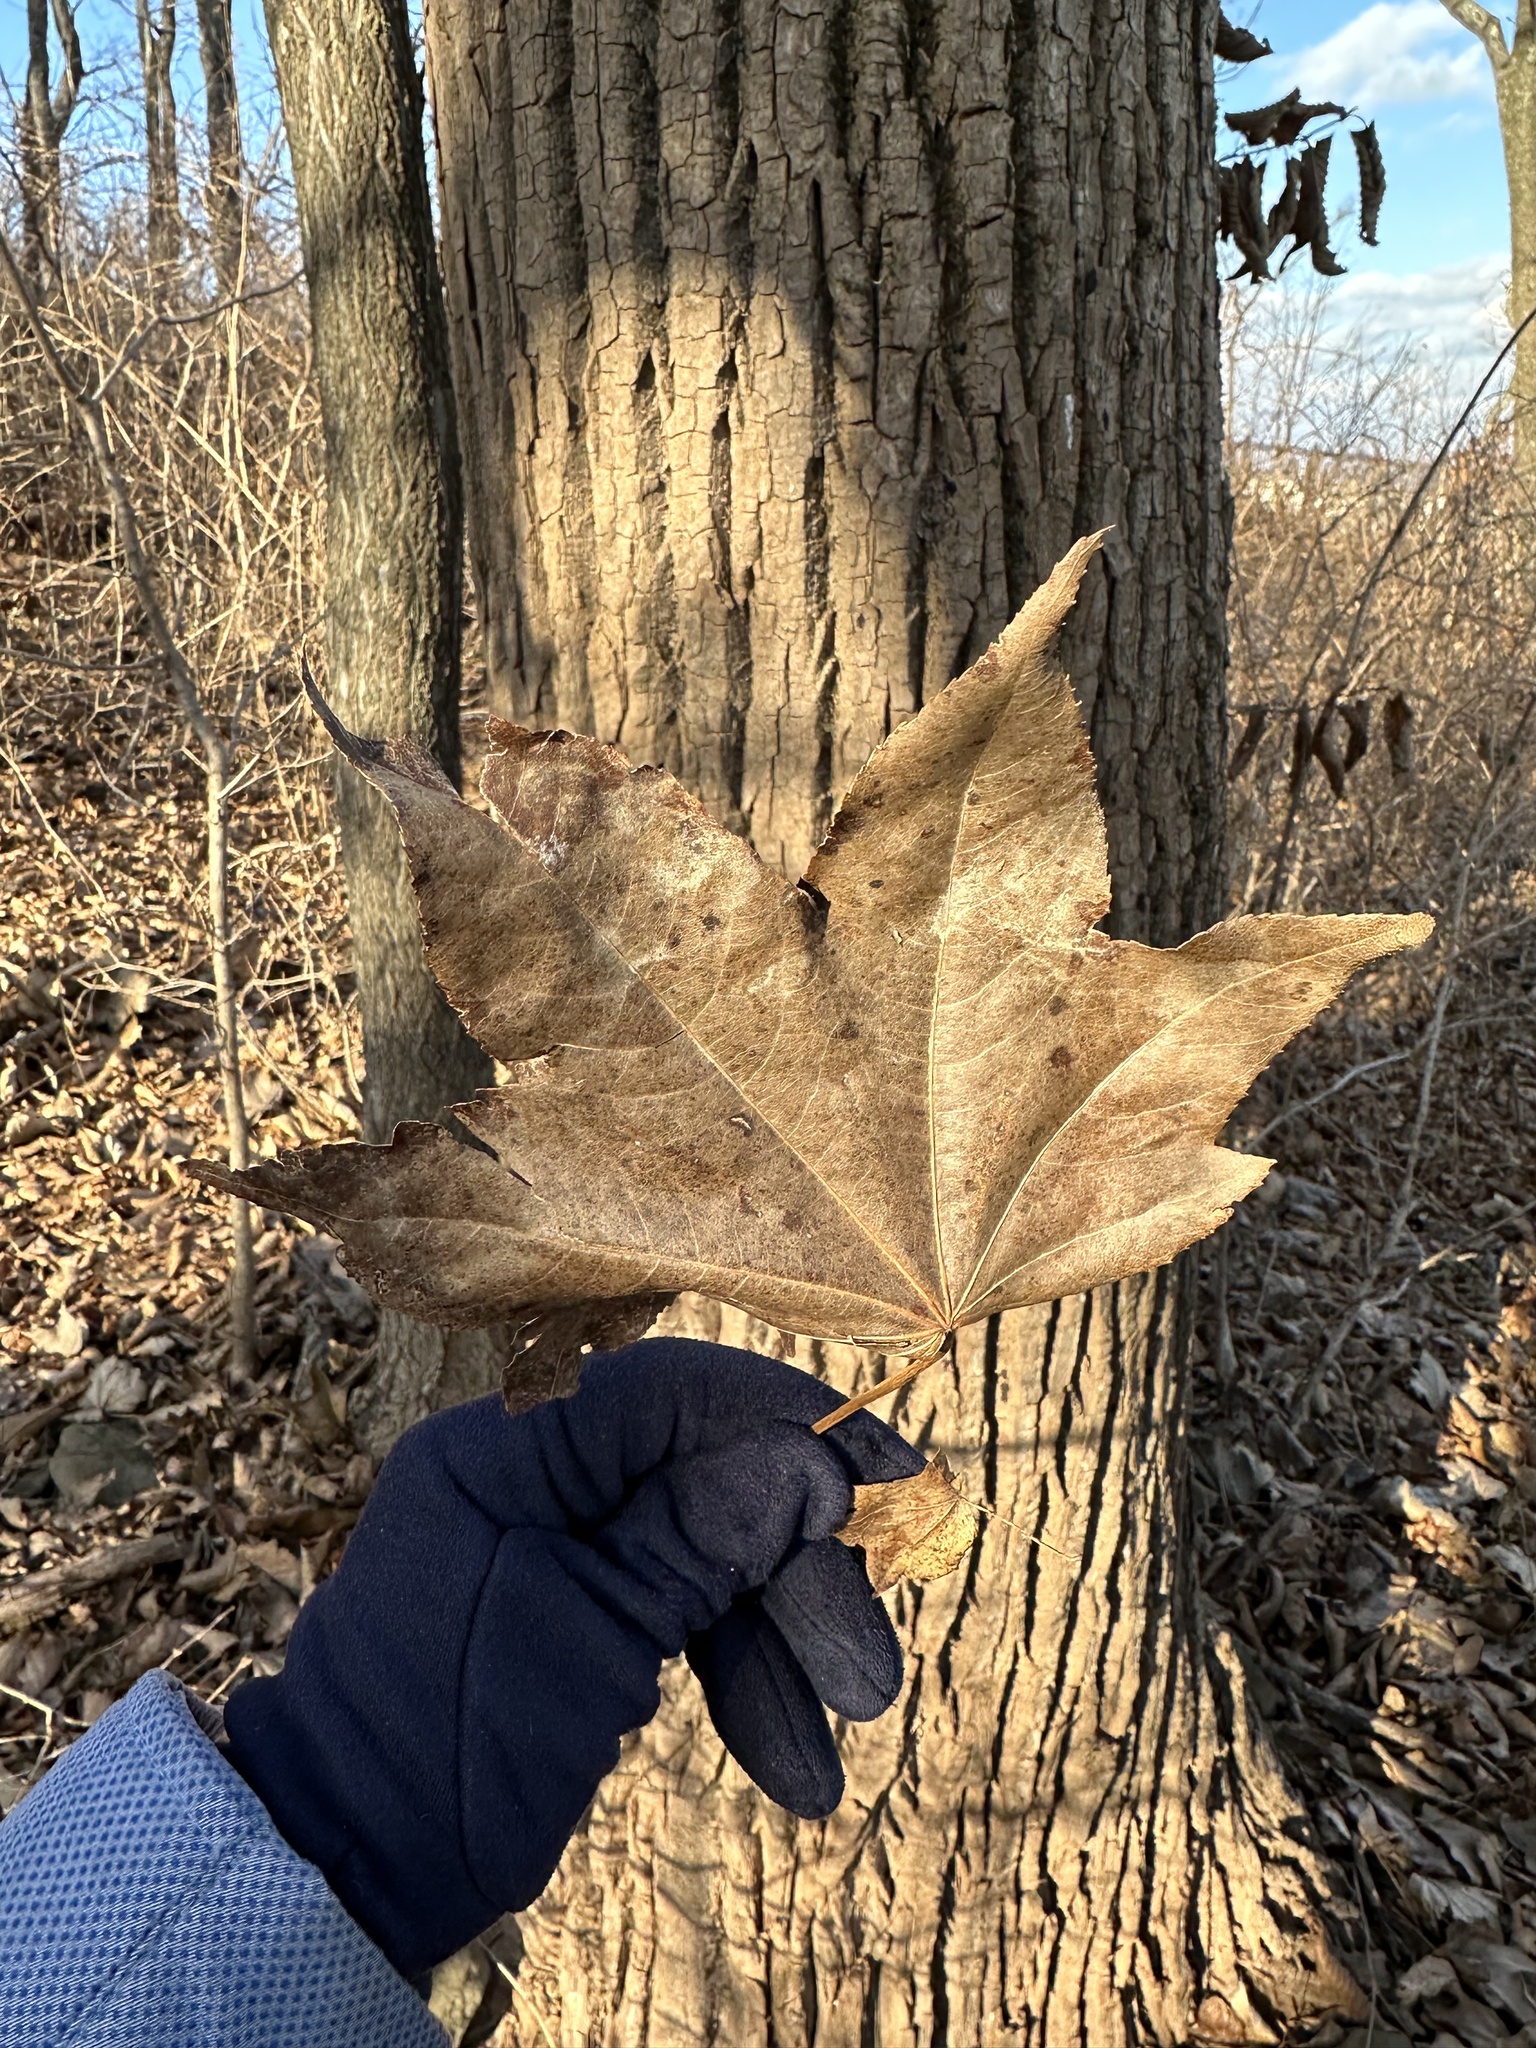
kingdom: Plantae
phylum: Tracheophyta
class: Magnoliopsida
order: Apiales
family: Araliaceae
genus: Kalopanax
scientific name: Kalopanax septemlobus
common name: Castor aralia
